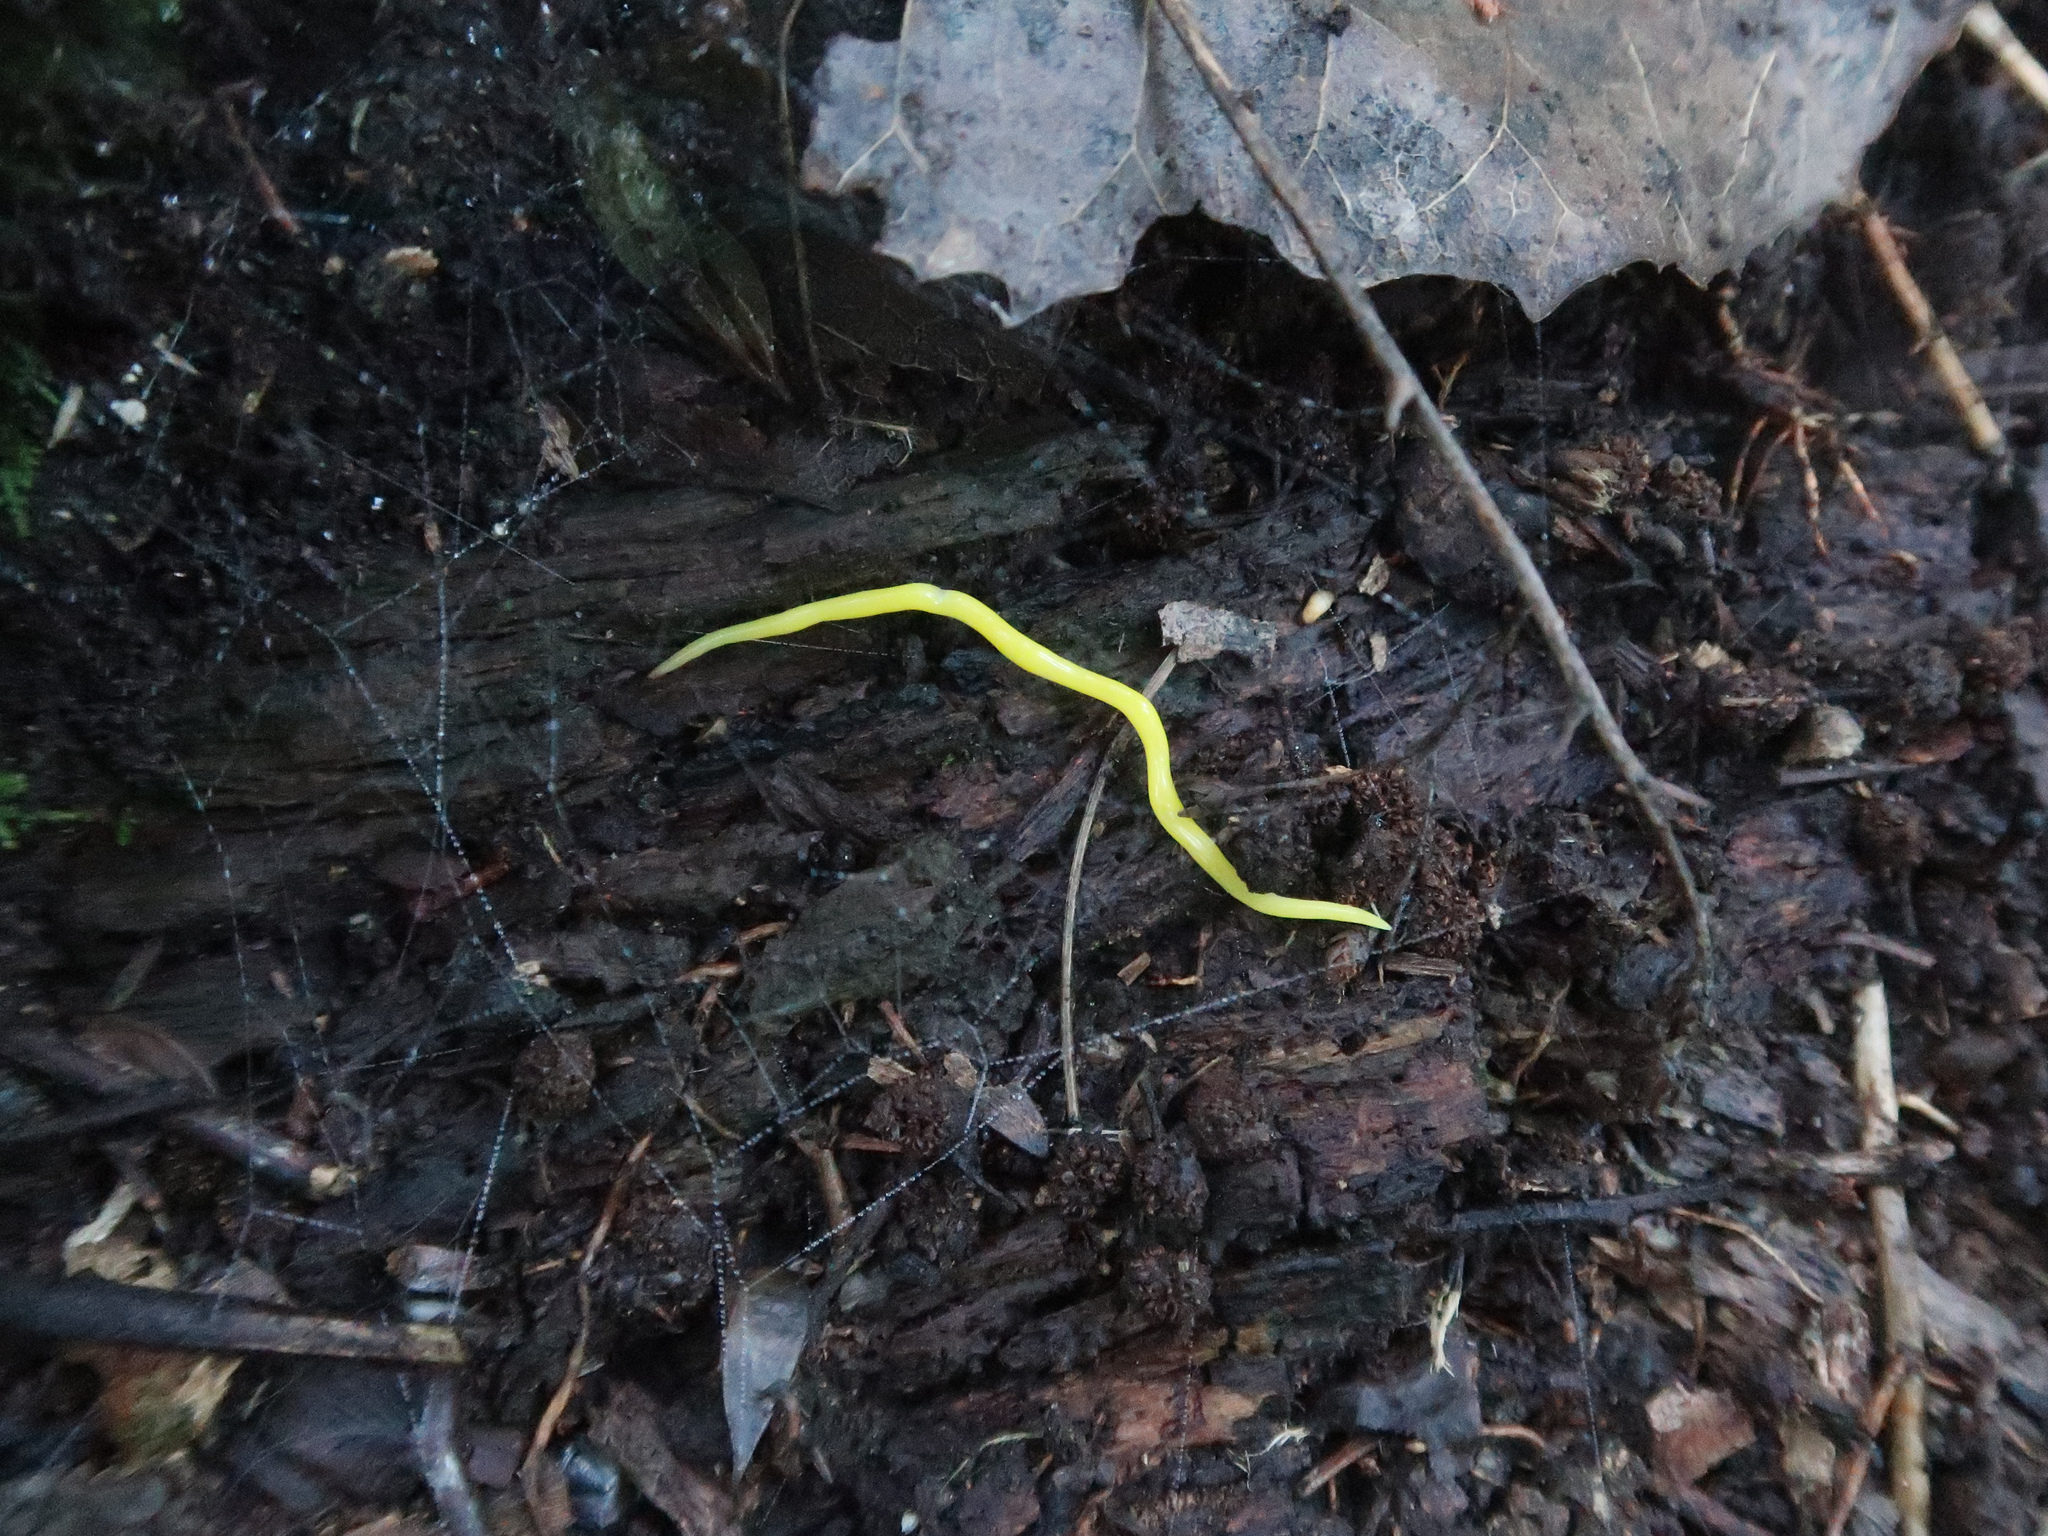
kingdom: Animalia
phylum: Platyhelminthes
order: Tricladida
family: Geoplanidae
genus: Fletchamia
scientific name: Fletchamia sugdeni
